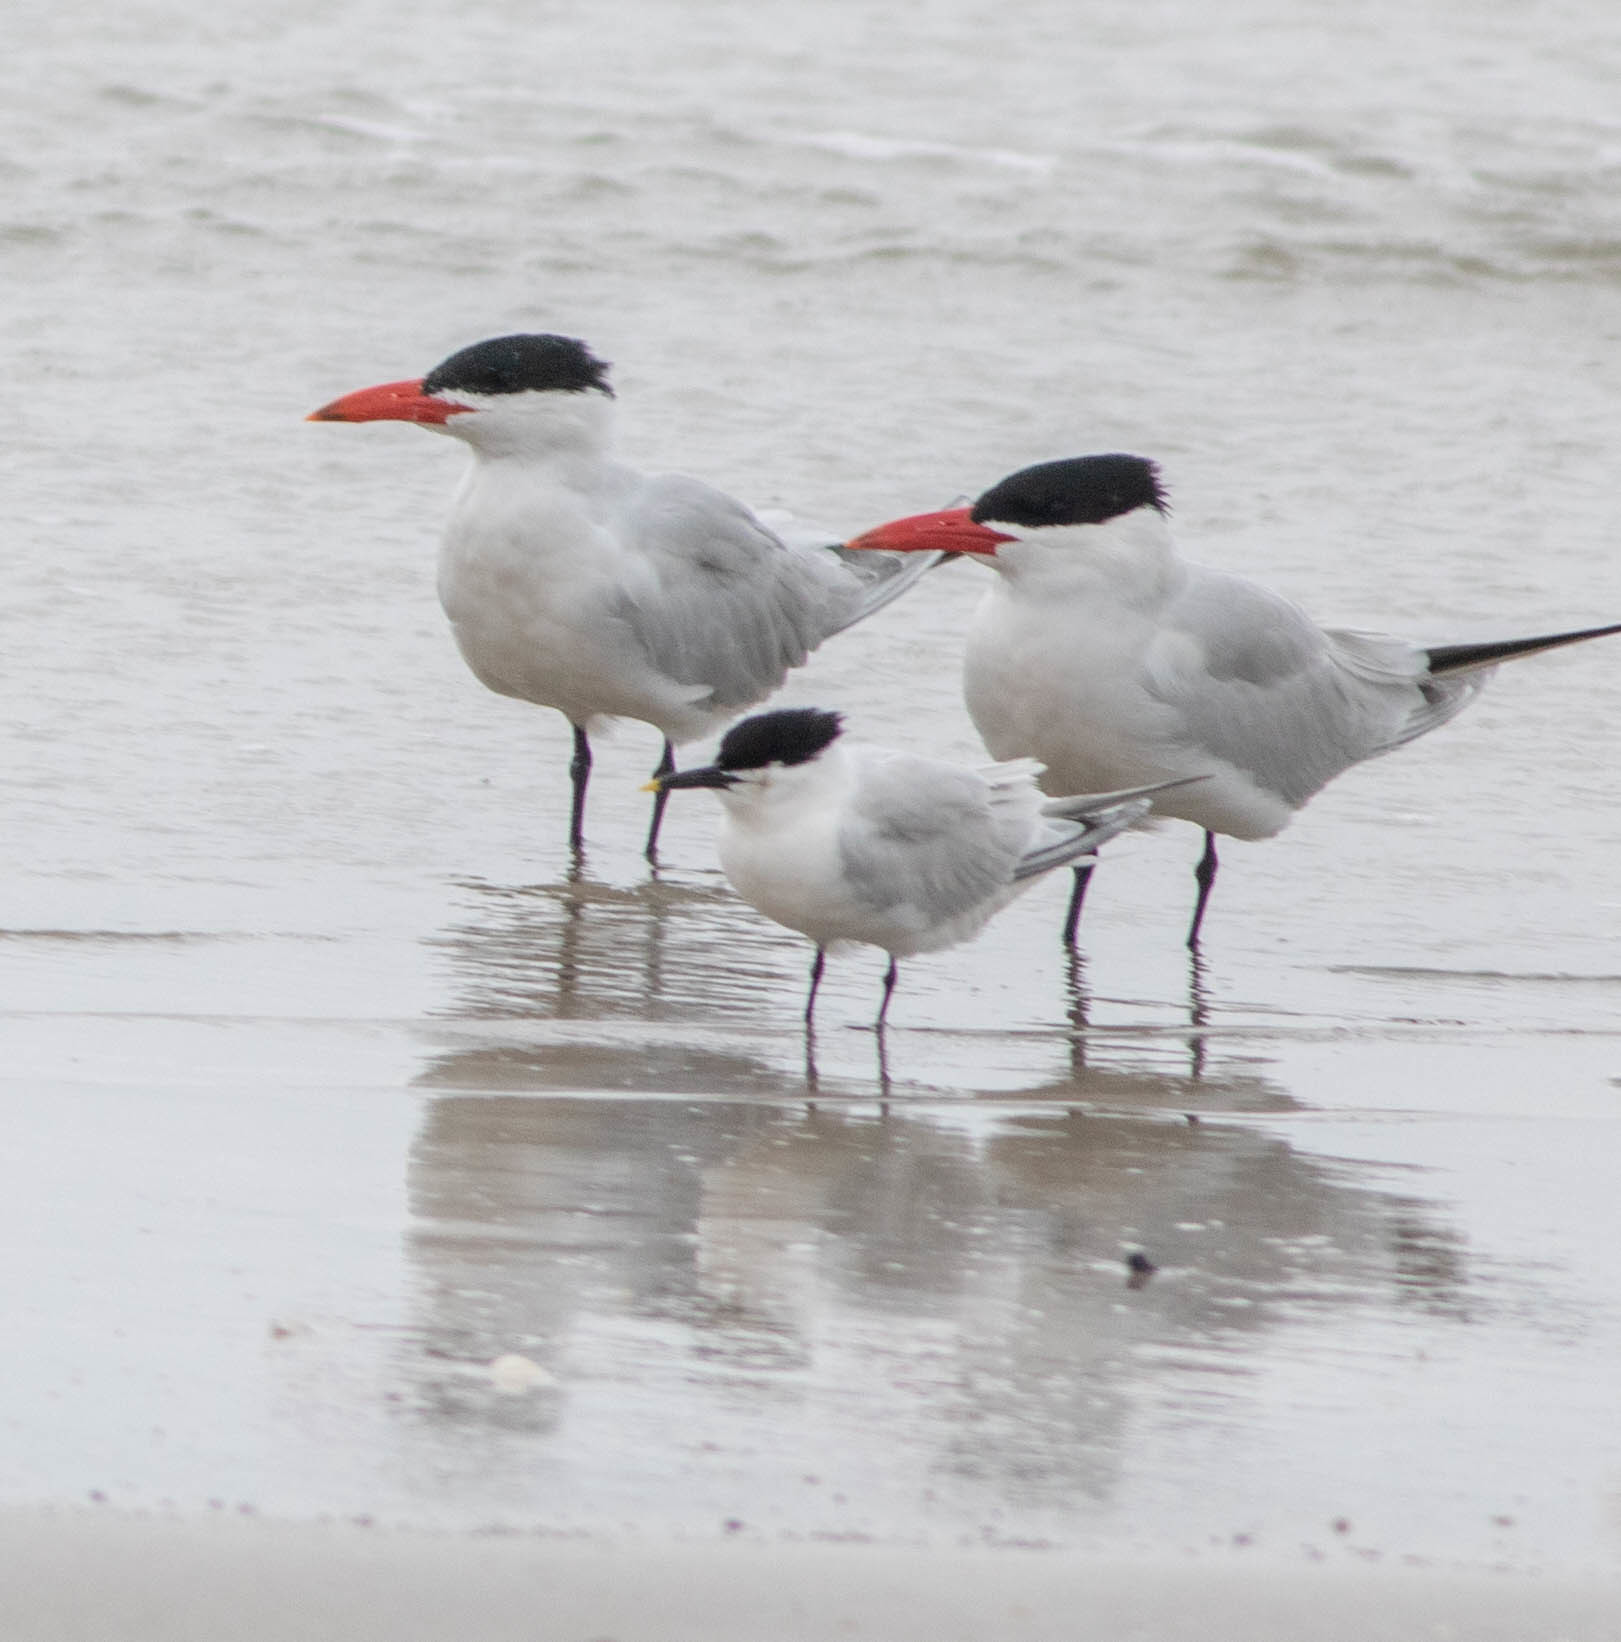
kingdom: Animalia
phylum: Chordata
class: Aves
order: Charadriiformes
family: Laridae
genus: Hydroprogne
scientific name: Hydroprogne caspia
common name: Caspian tern
